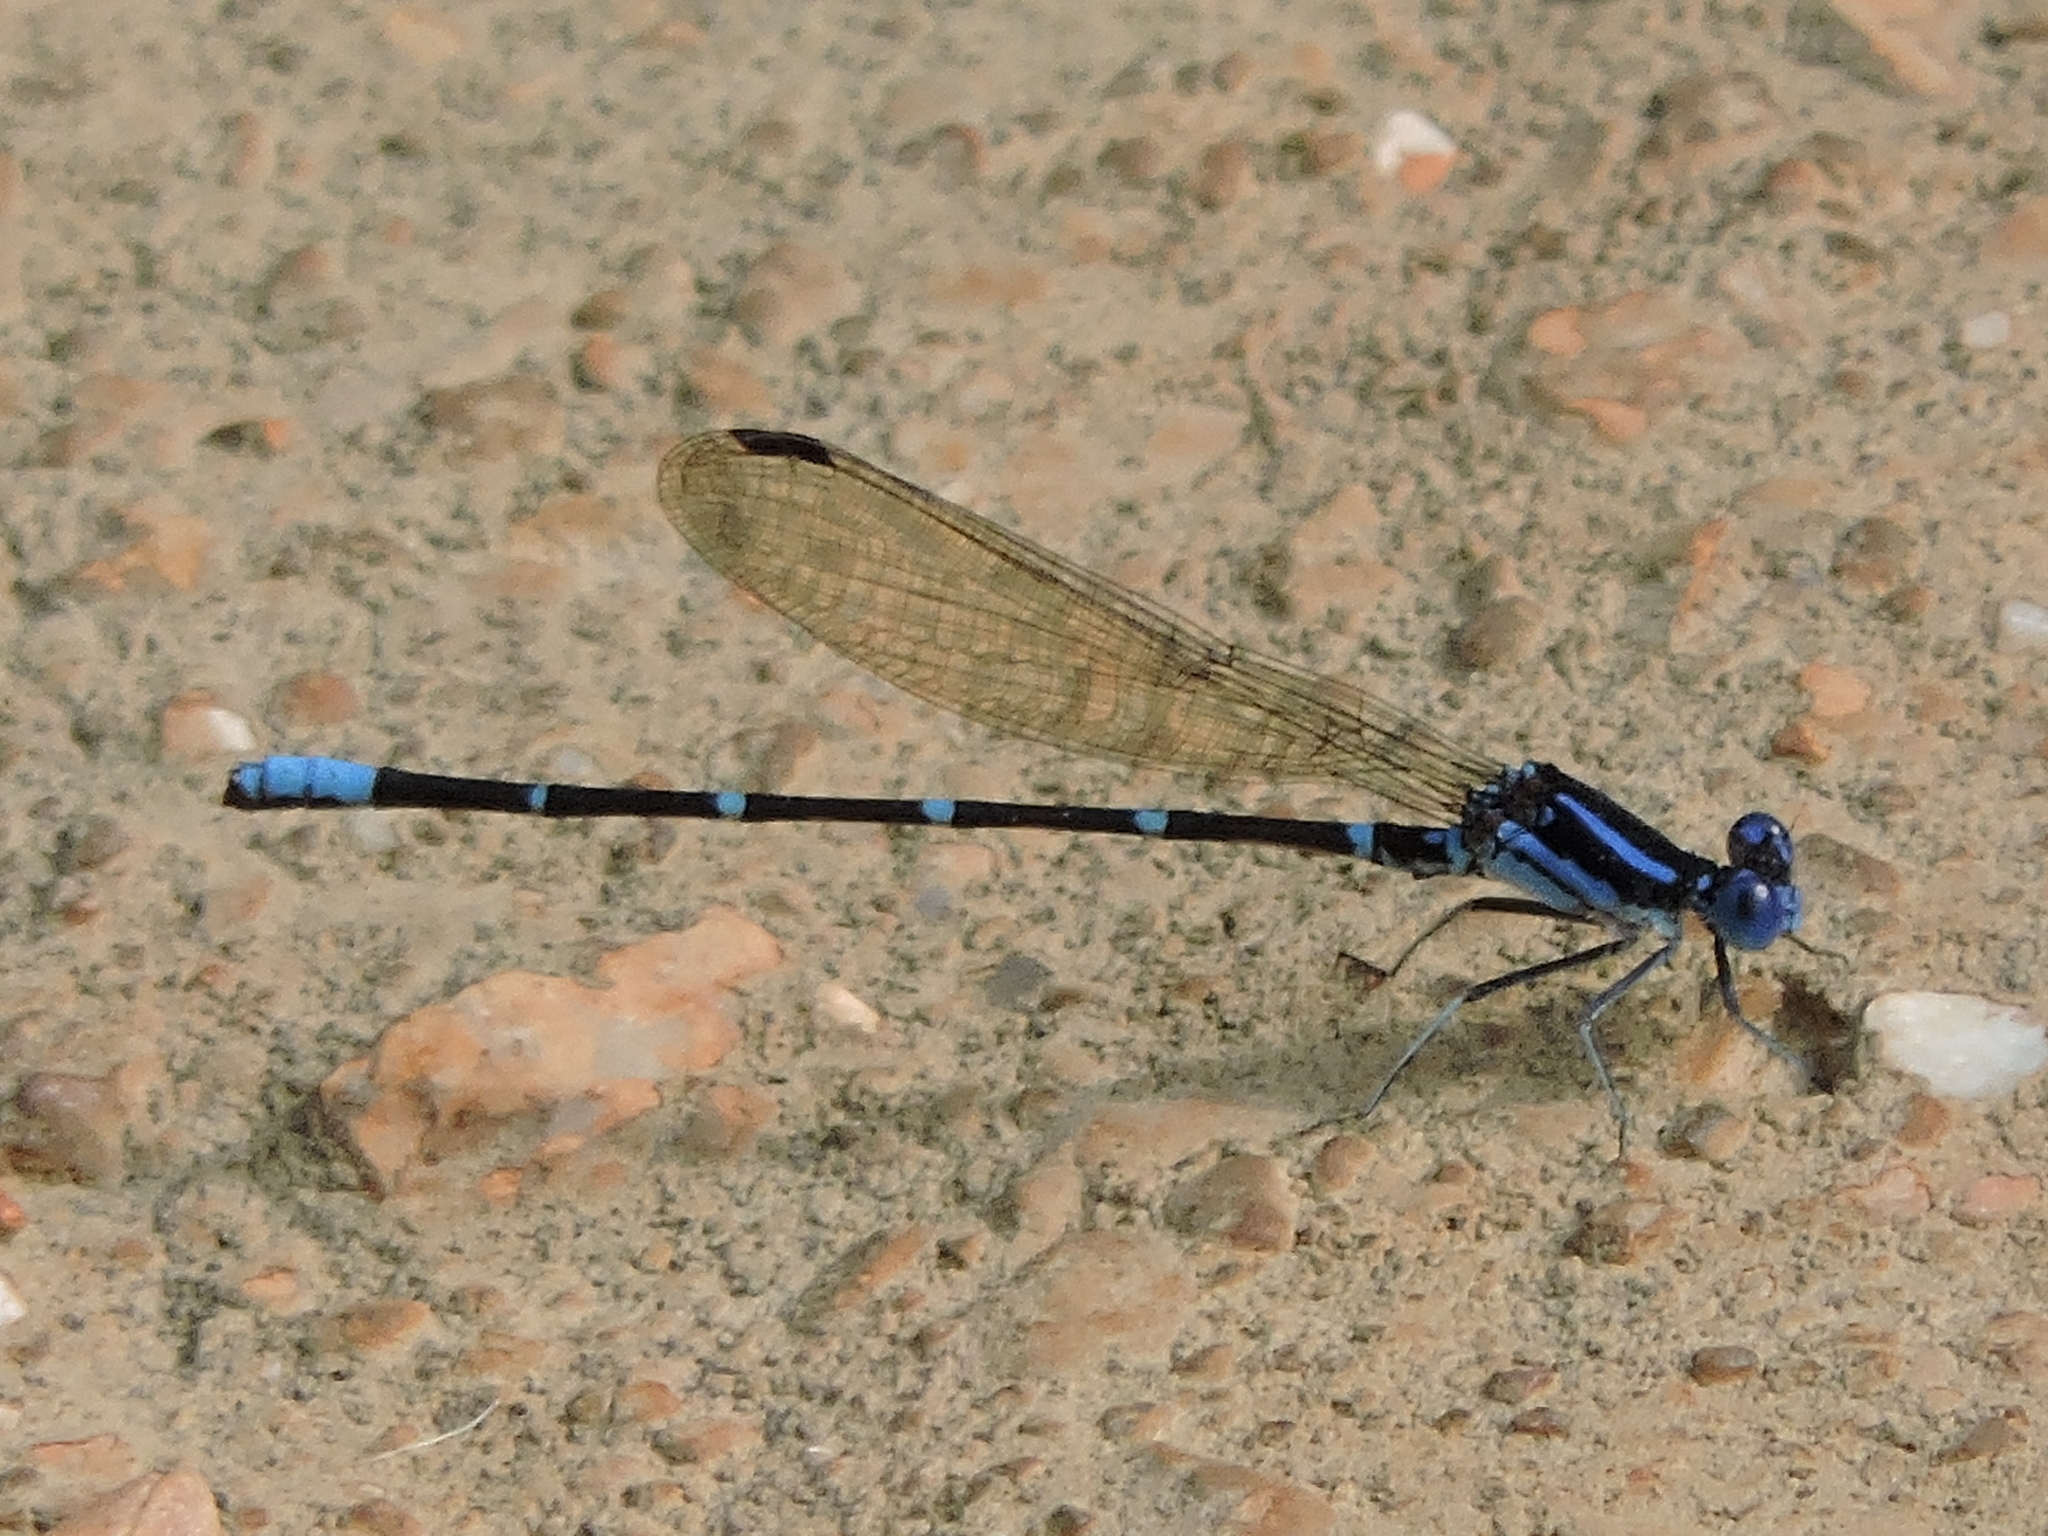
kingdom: Animalia
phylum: Arthropoda
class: Insecta
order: Odonata
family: Coenagrionidae
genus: Argia
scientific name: Argia sedula
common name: Blue-ringed dancer
